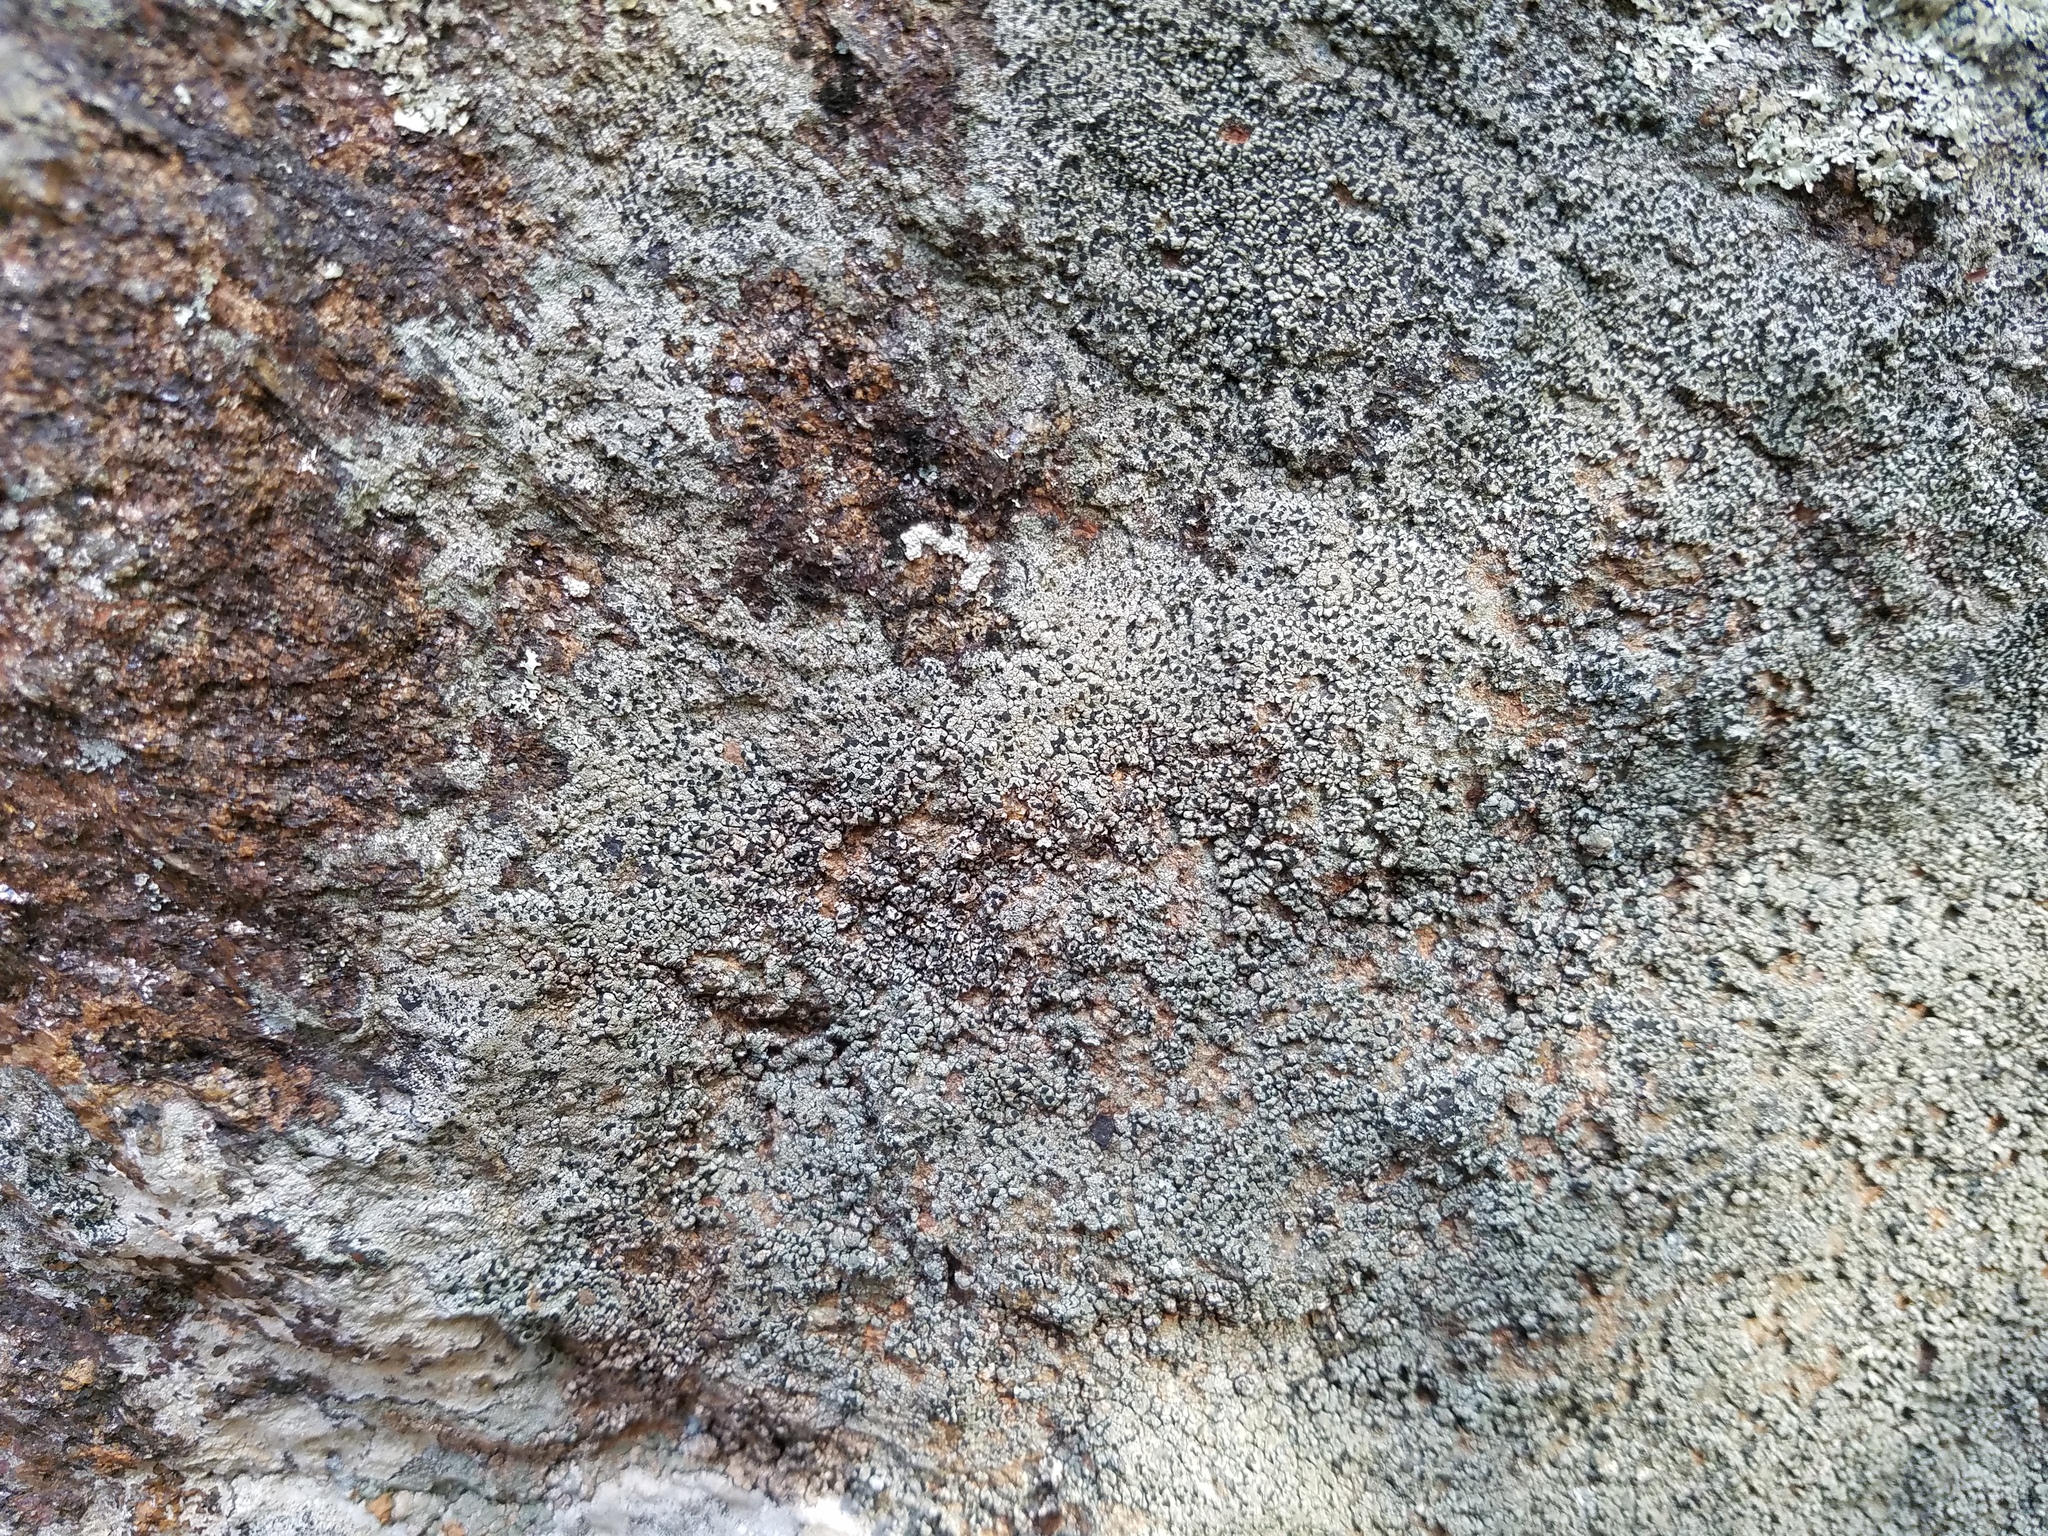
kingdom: Fungi
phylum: Ascomycota
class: Lecanoromycetes
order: Umbilicariales
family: Fuscideaceae
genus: Fuscidea
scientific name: Fuscidea recensa
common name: A quilt lichen
